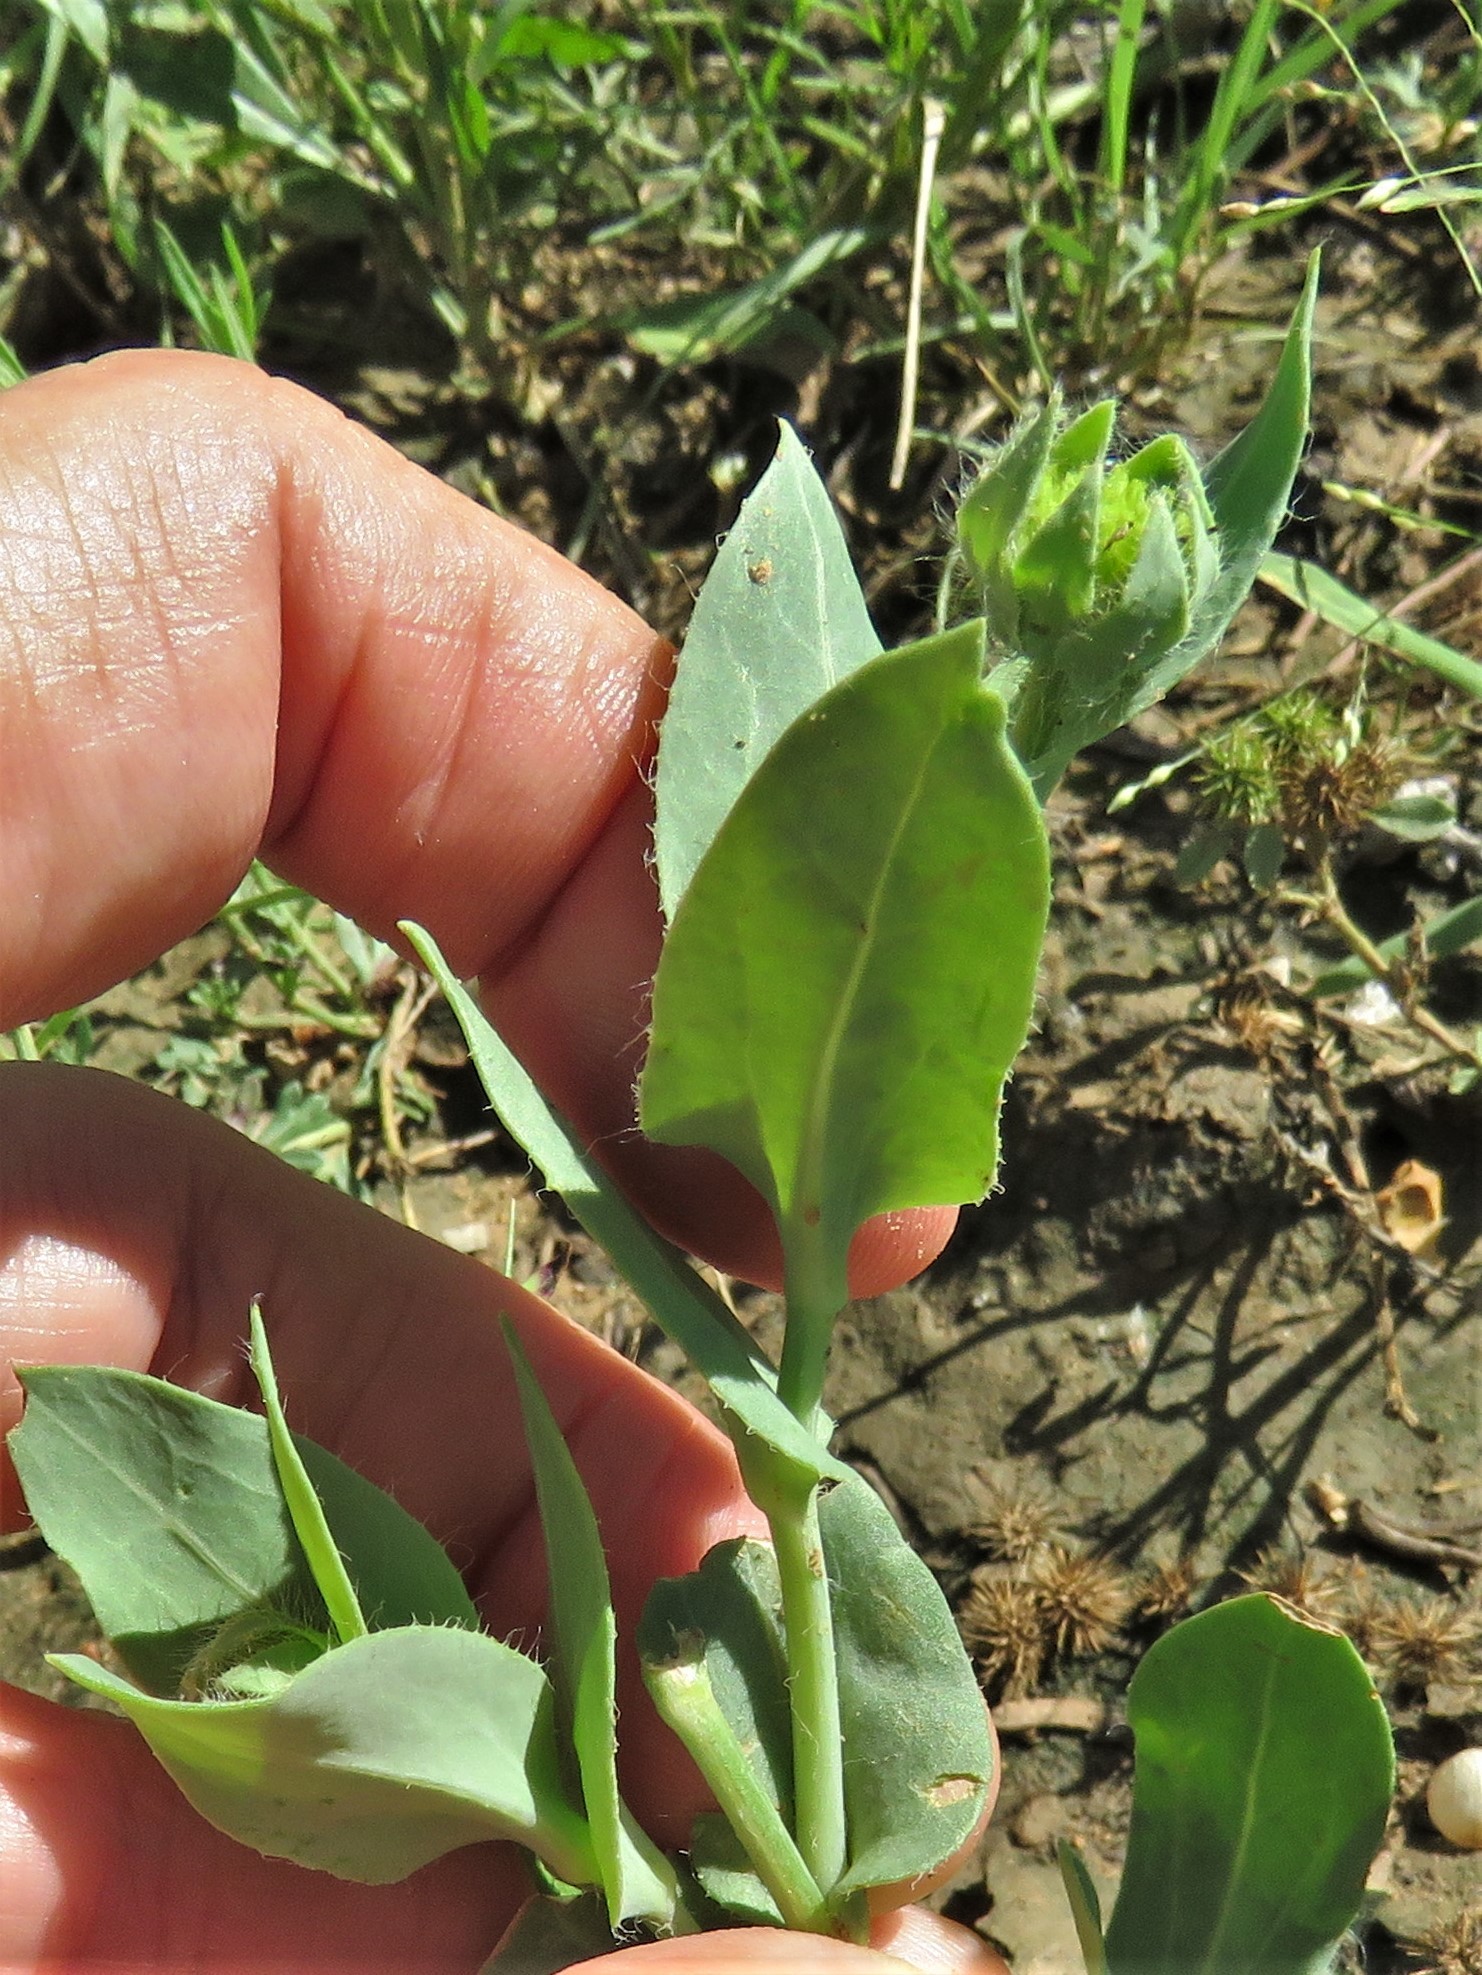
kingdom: Plantae
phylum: Tracheophyta
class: Magnoliopsida
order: Asterales
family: Asteraceae
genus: Amblyolepis
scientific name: Amblyolepis setigera
